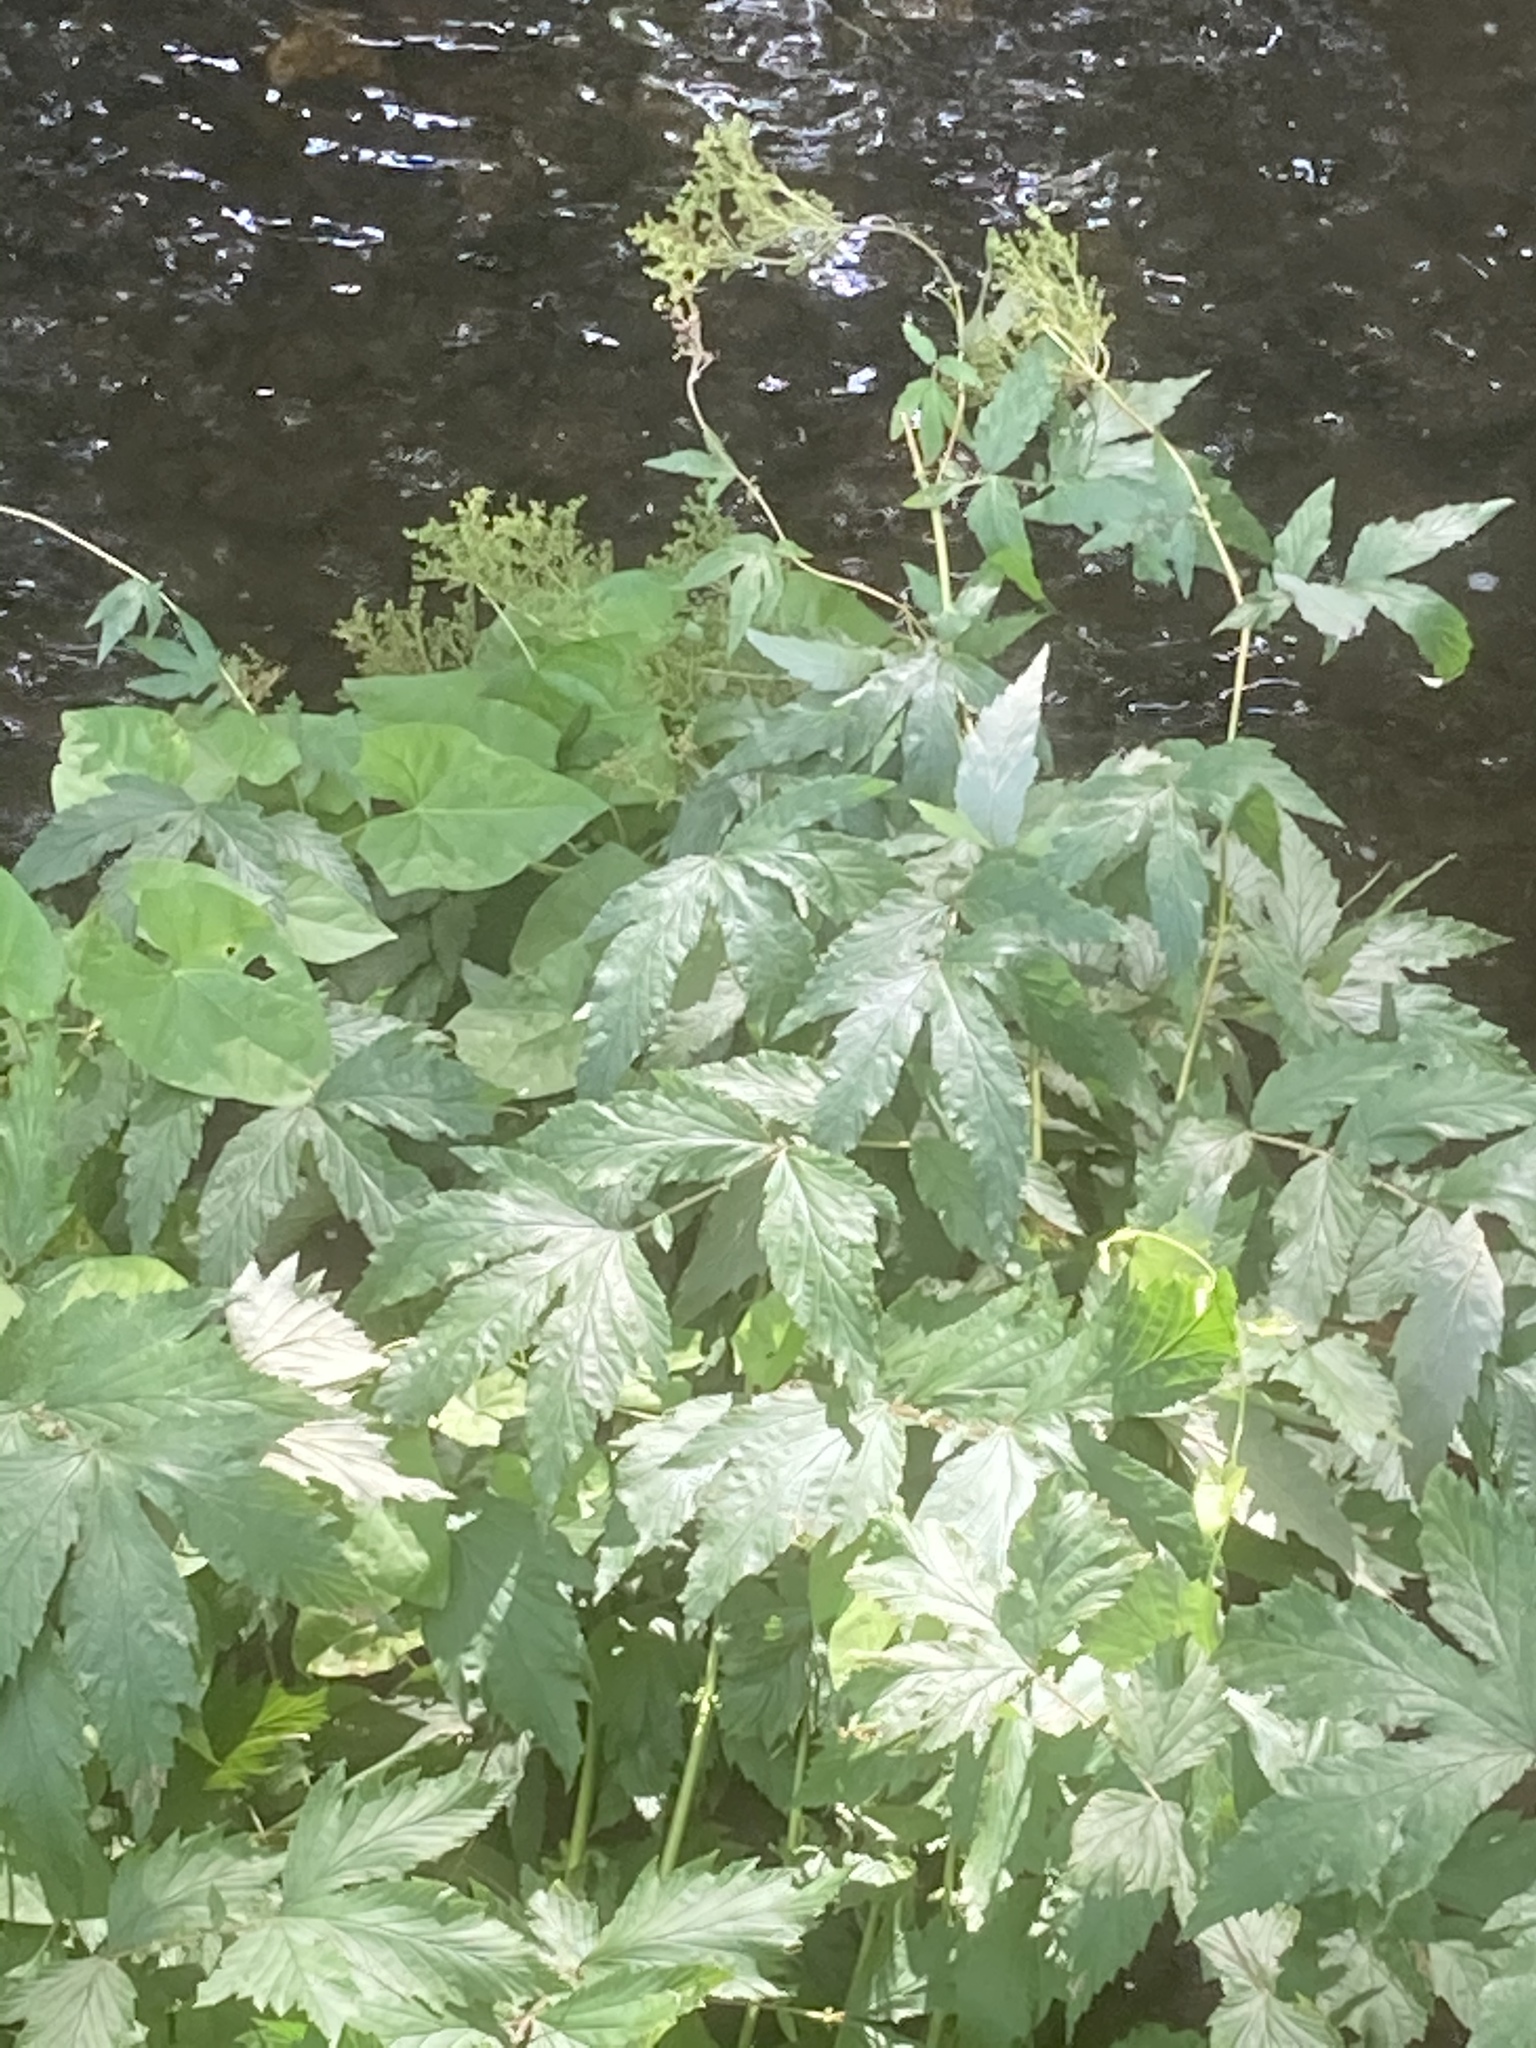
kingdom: Plantae
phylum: Tracheophyta
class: Magnoliopsida
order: Rosales
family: Rosaceae
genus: Filipendula
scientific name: Filipendula ulmaria
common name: Meadowsweet
